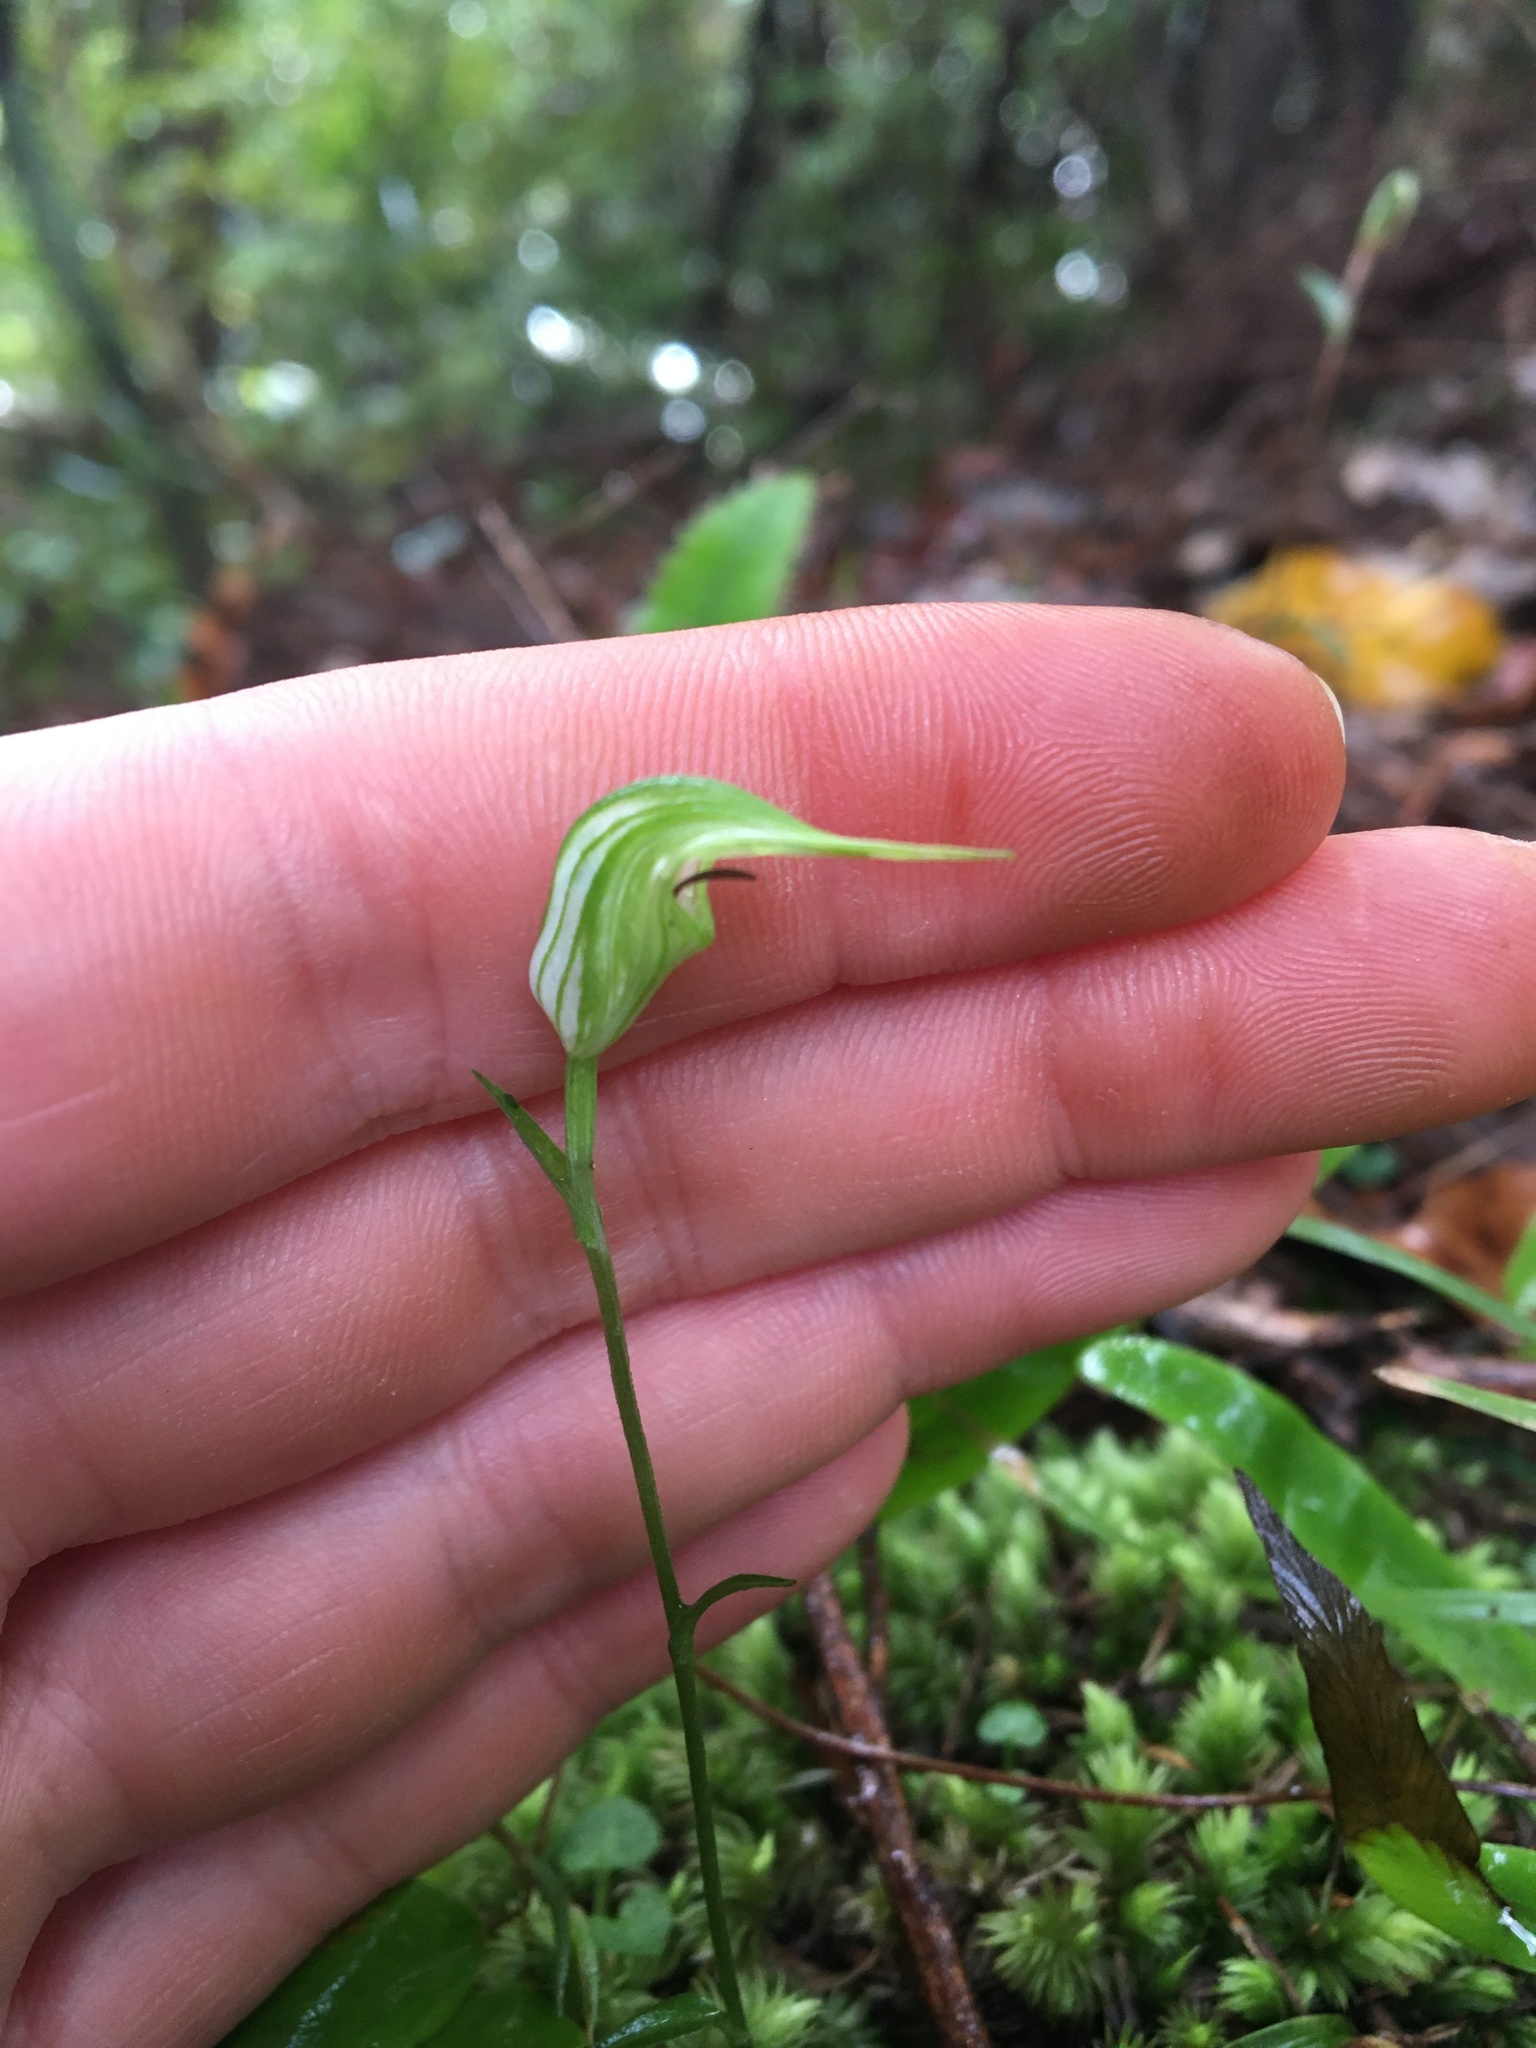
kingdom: Plantae
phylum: Tracheophyta
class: Liliopsida
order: Asparagales
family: Orchidaceae
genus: Pterostylis
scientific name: Pterostylis trullifolia
